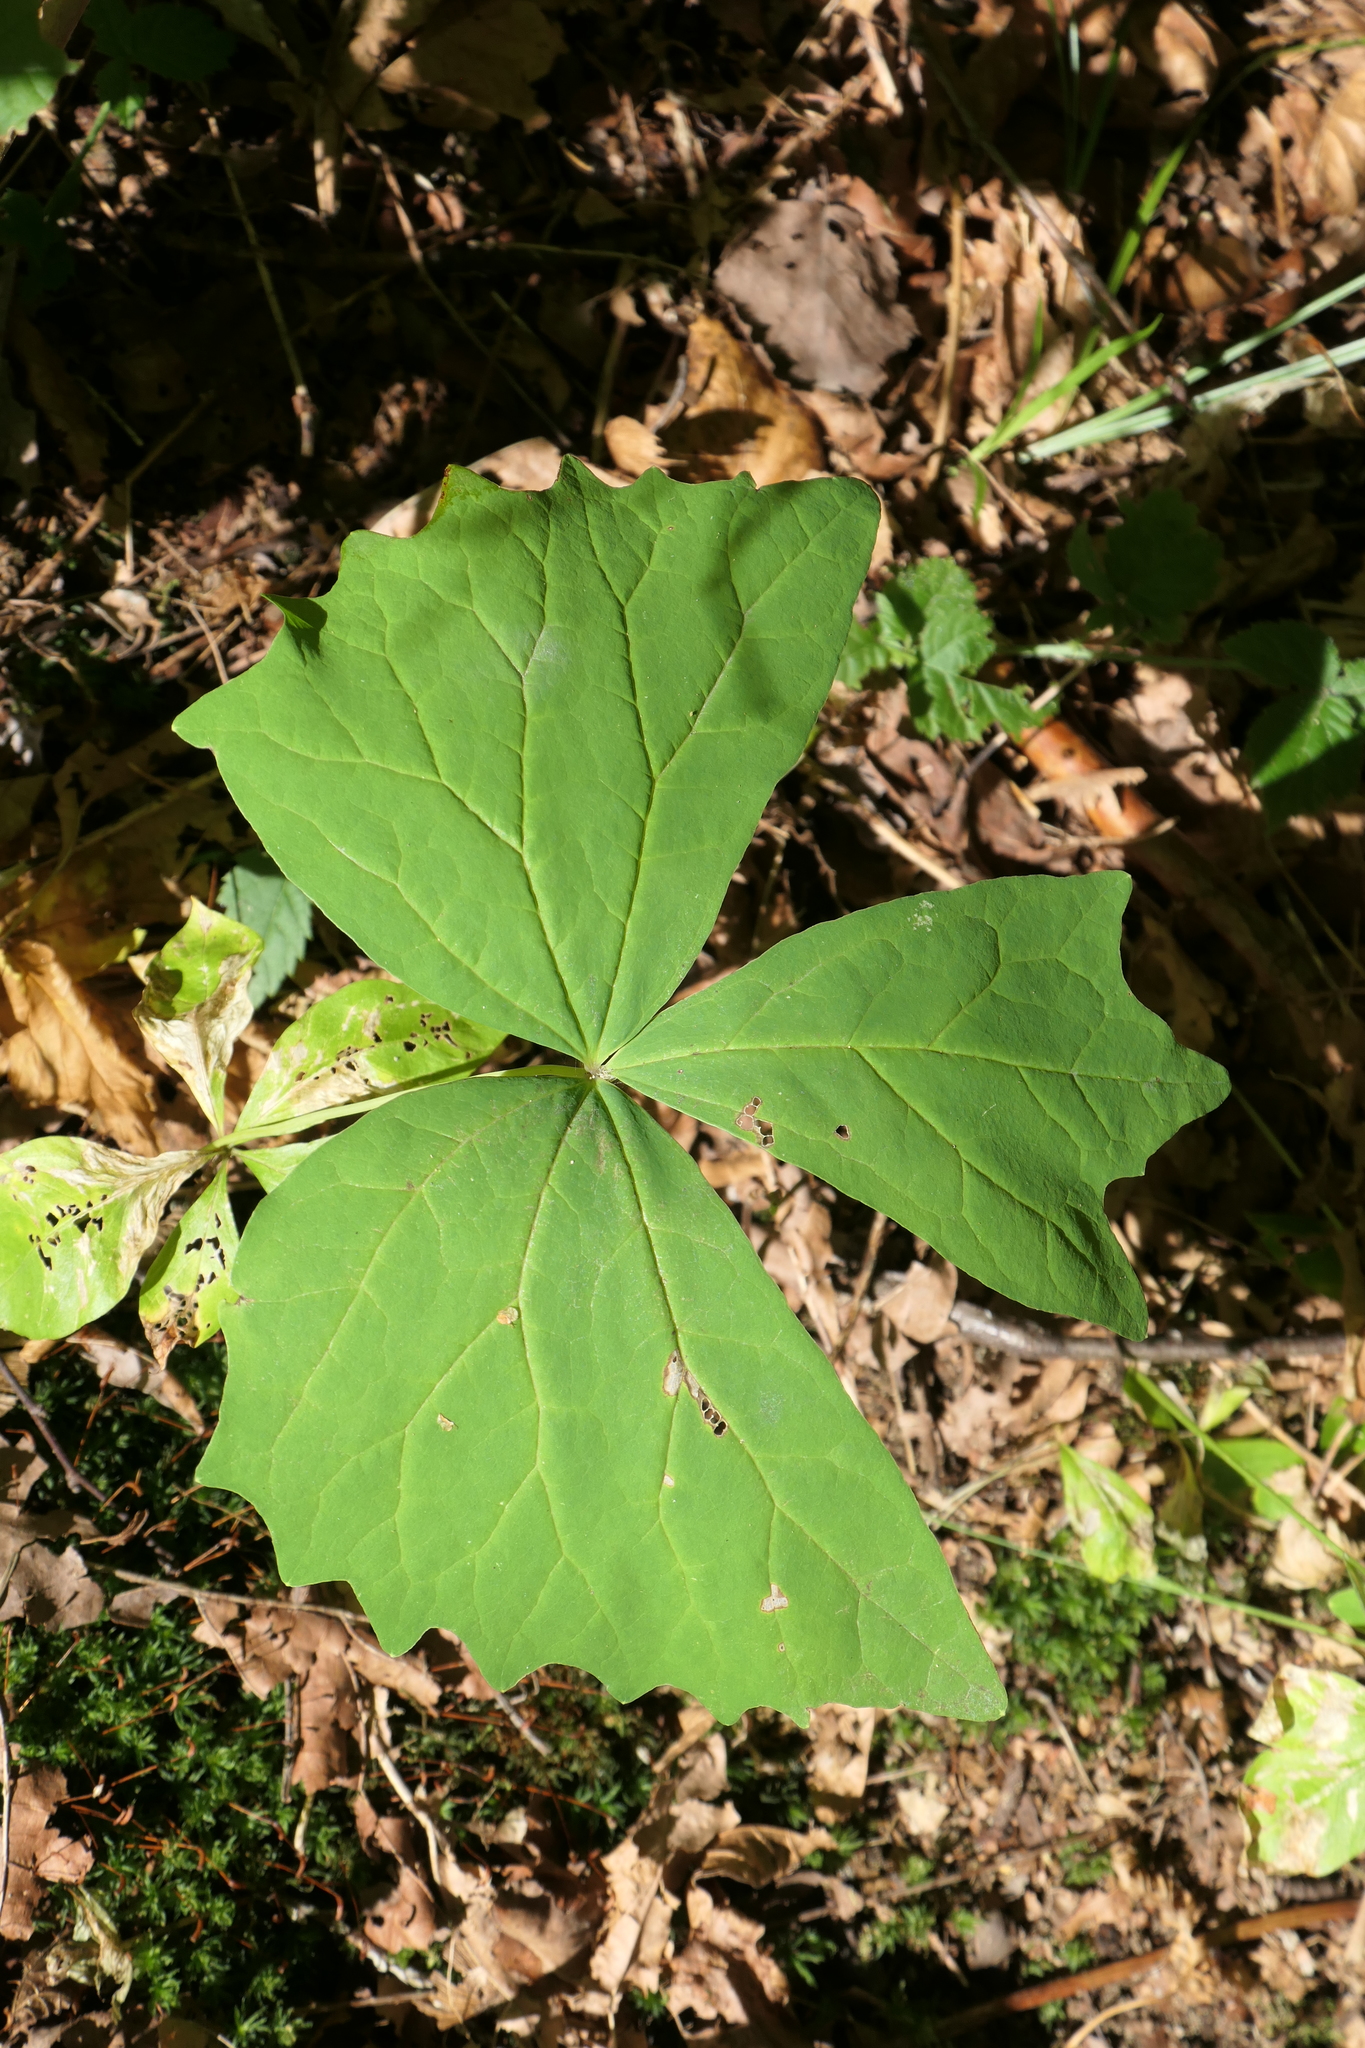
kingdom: Plantae
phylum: Tracheophyta
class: Magnoliopsida
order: Ranunculales
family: Berberidaceae
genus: Achlys
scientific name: Achlys triphylla
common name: Vanilla-leaf
